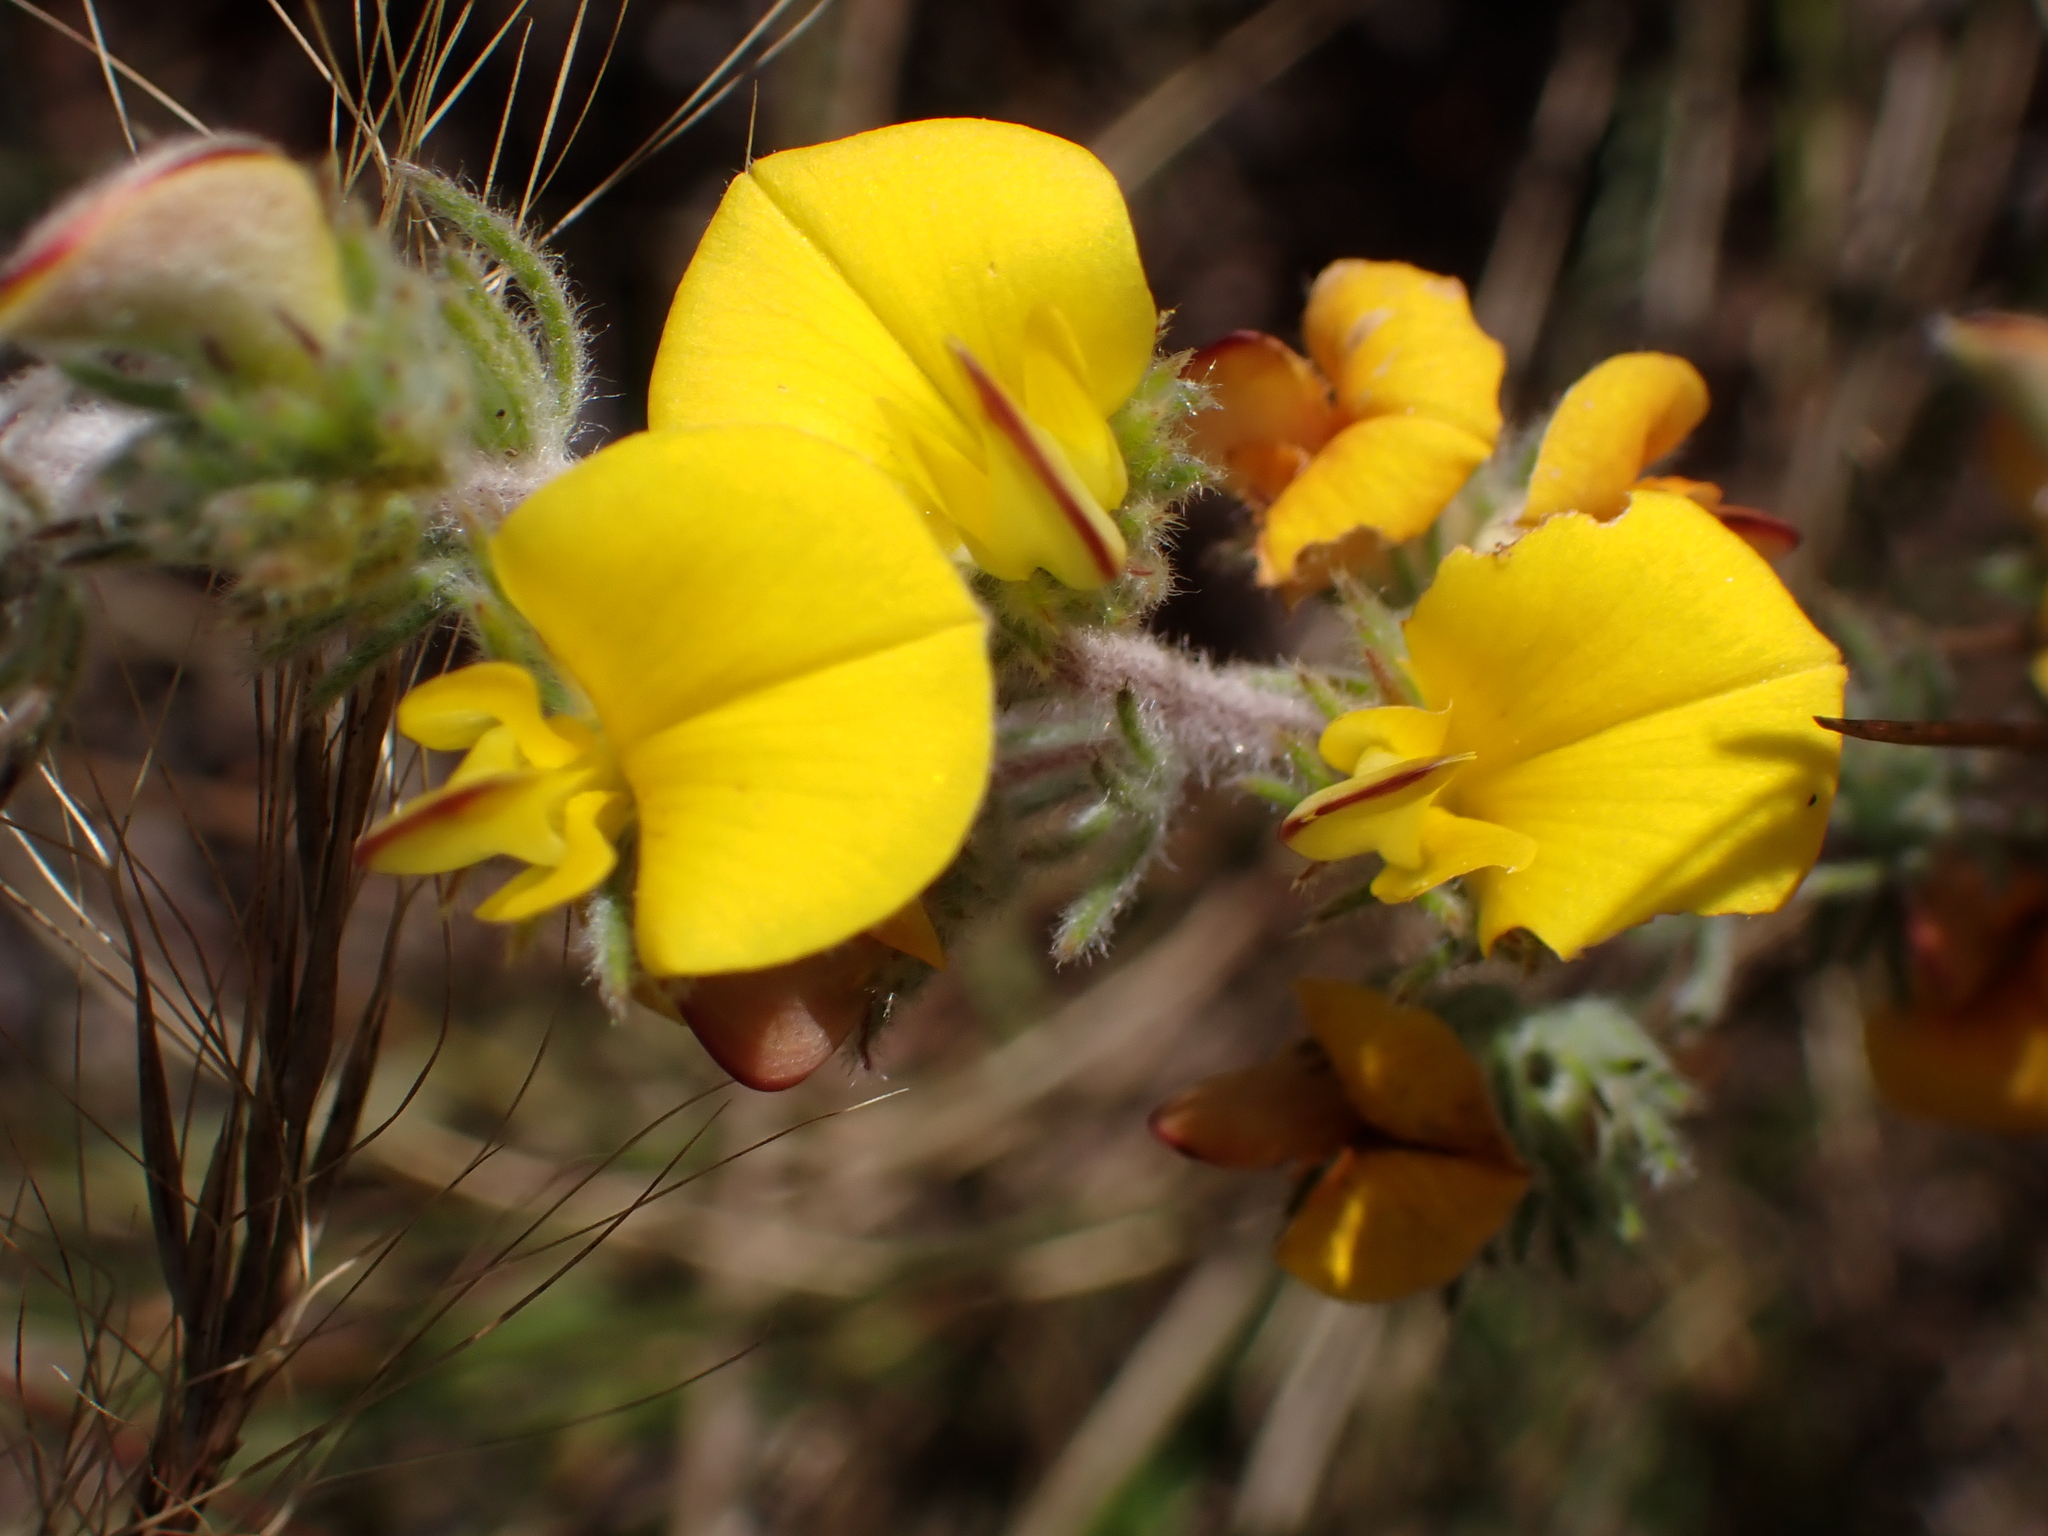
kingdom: Plantae
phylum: Tracheophyta
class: Magnoliopsida
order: Fabales
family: Fabaceae
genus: Aspalathus
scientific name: Aspalathus longipes
